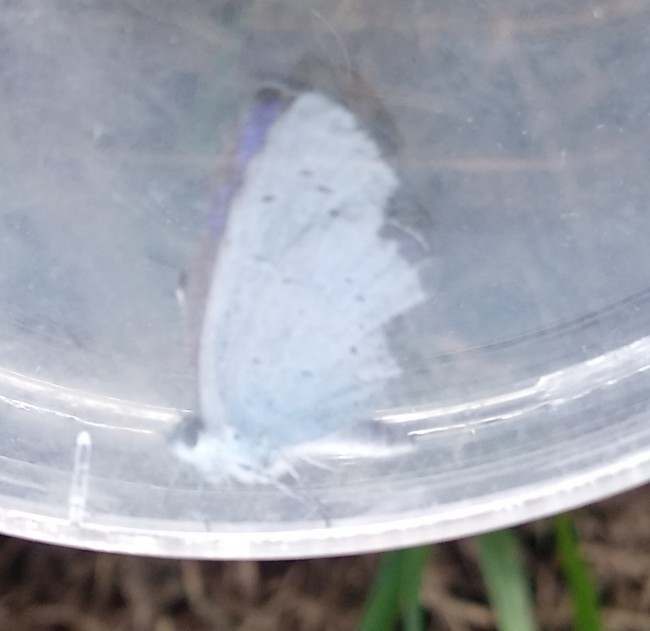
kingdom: Animalia
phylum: Arthropoda
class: Insecta
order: Lepidoptera
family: Lycaenidae
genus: Celastrina
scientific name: Celastrina argiolus
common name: Holly blue
